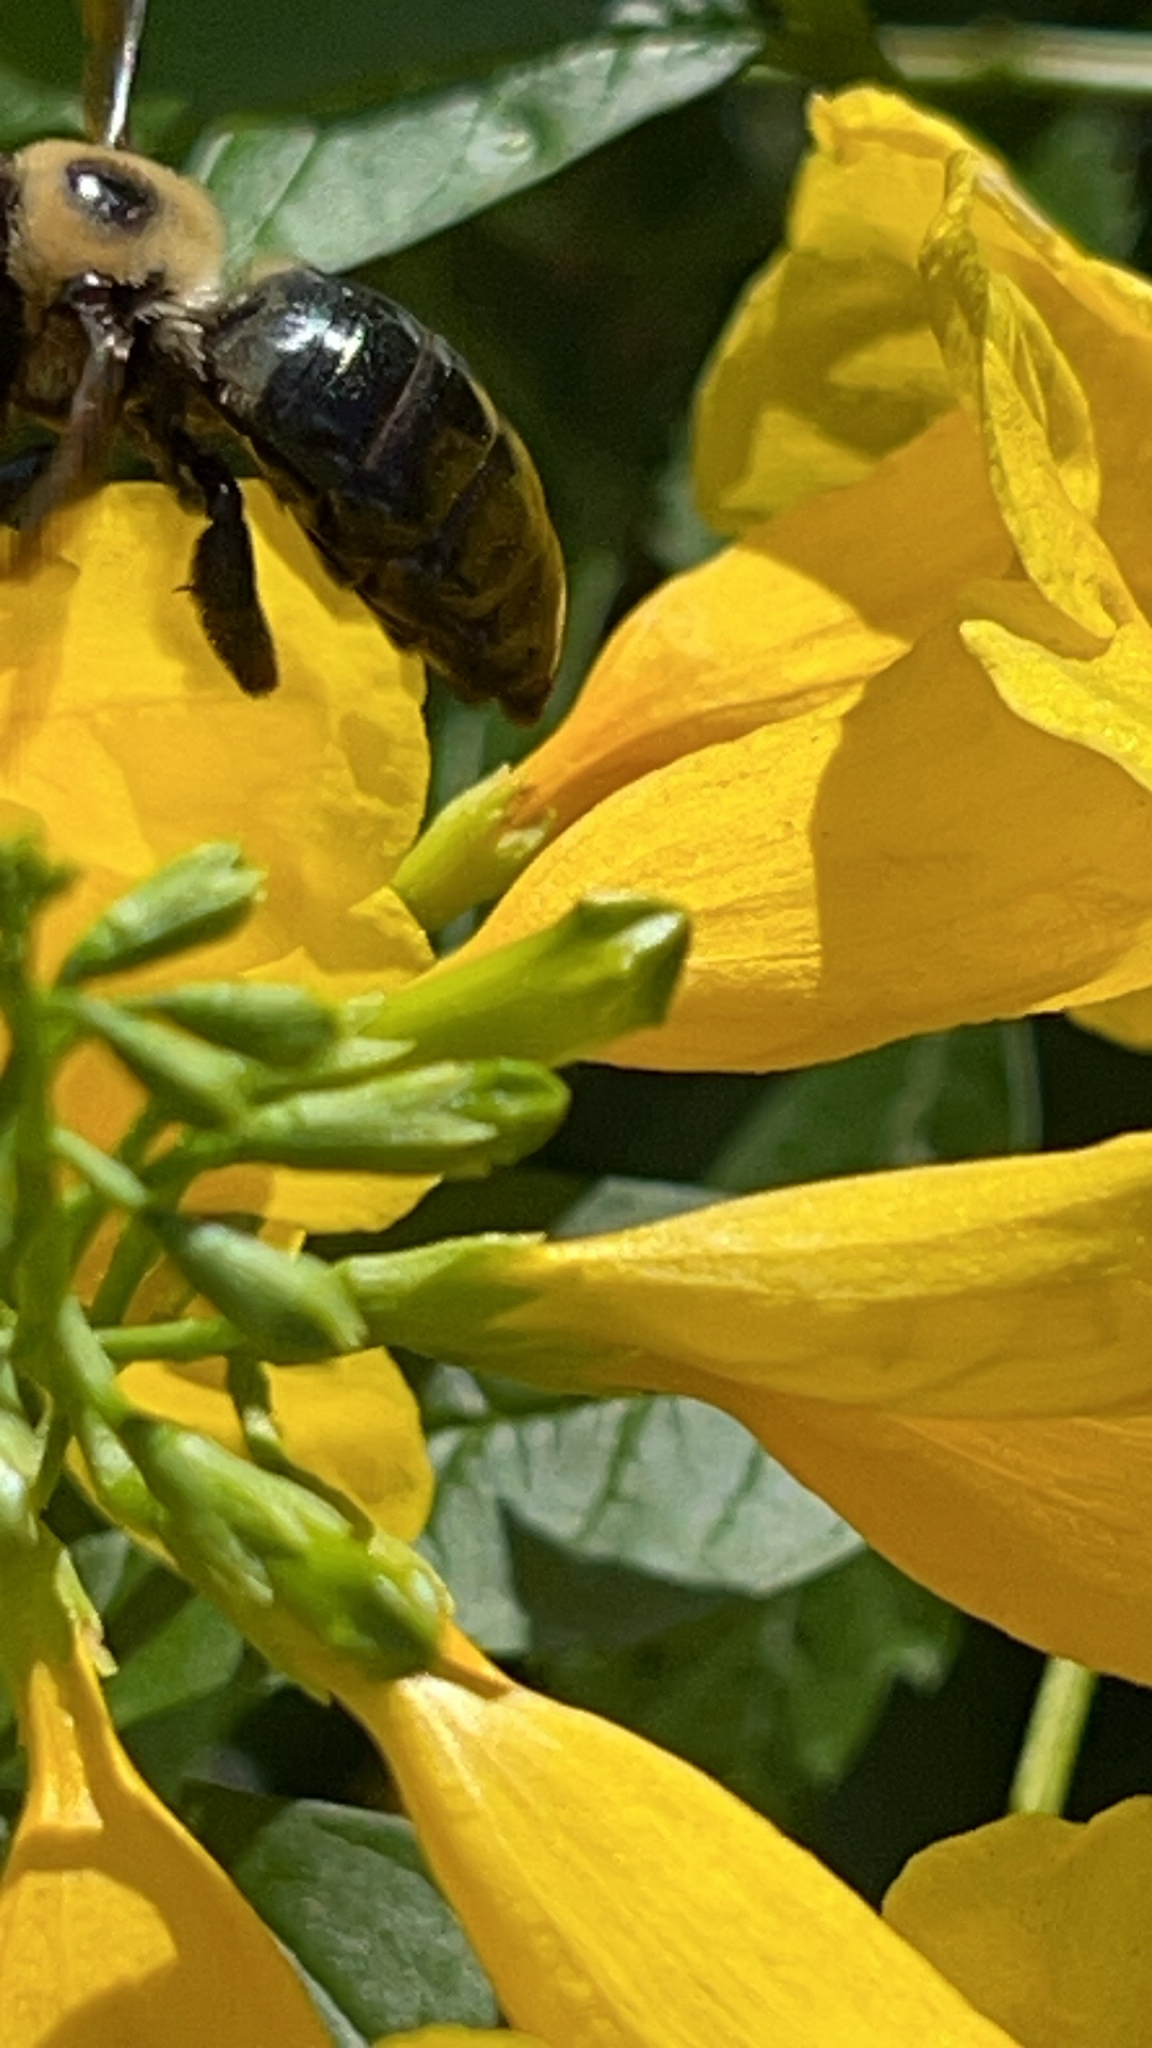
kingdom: Animalia
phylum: Arthropoda
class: Insecta
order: Hymenoptera
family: Apidae
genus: Xylocopa
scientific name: Xylocopa virginica
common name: Carpenter bee
